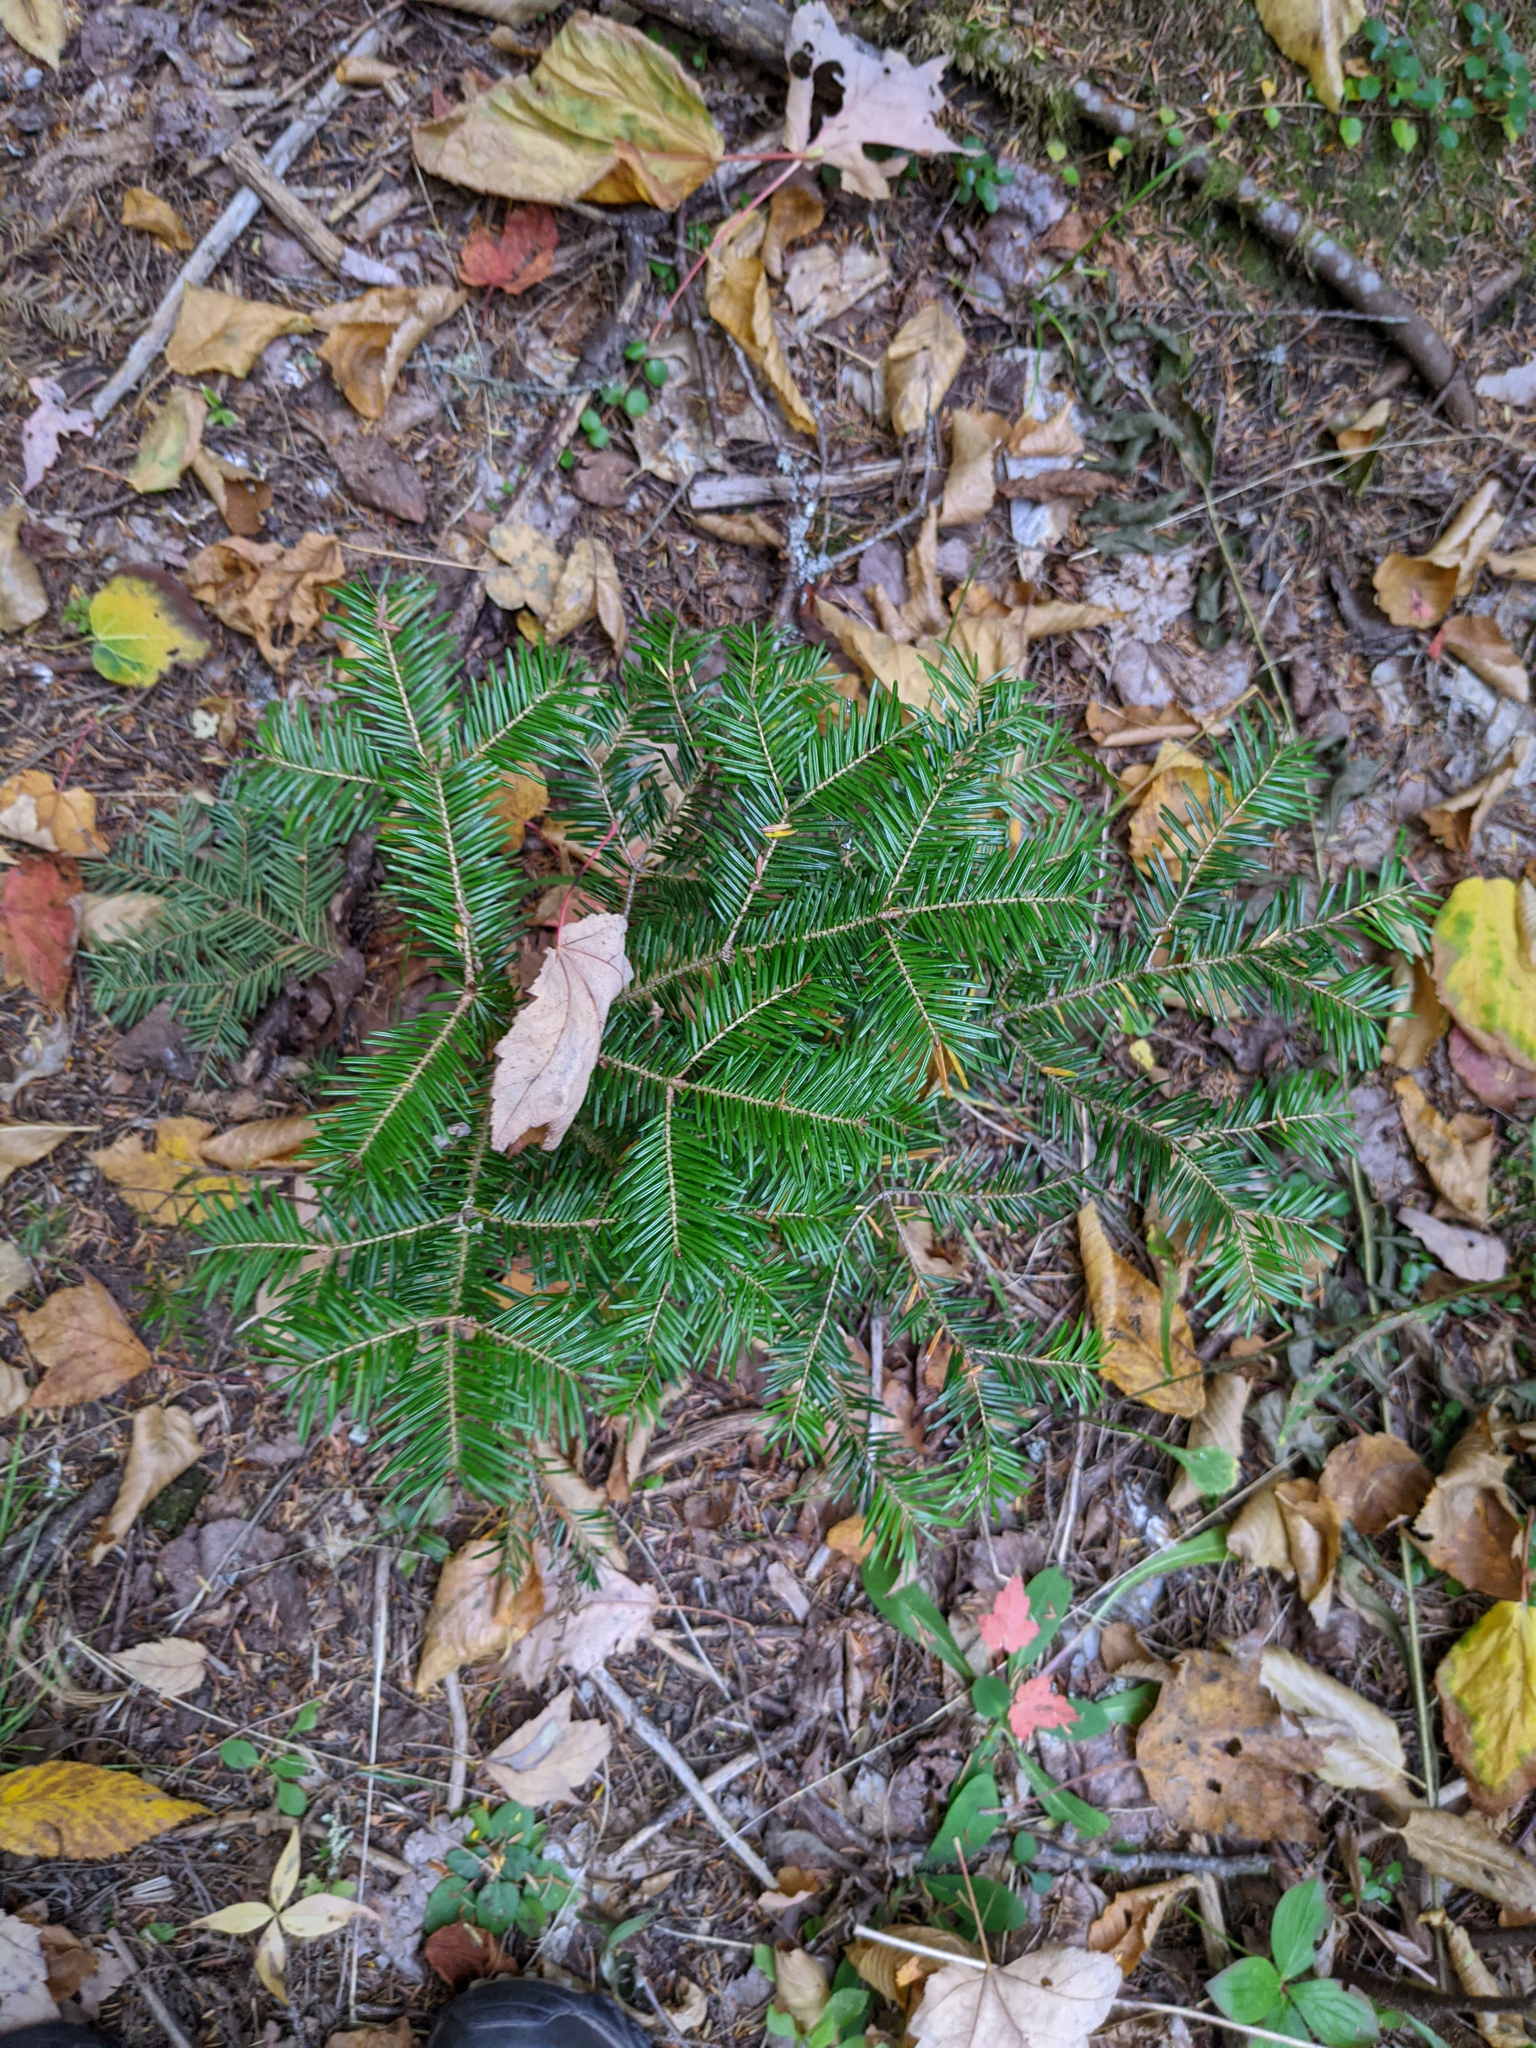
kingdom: Plantae
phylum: Tracheophyta
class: Pinopsida
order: Pinales
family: Pinaceae
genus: Abies
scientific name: Abies balsamea
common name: Balsam fir
